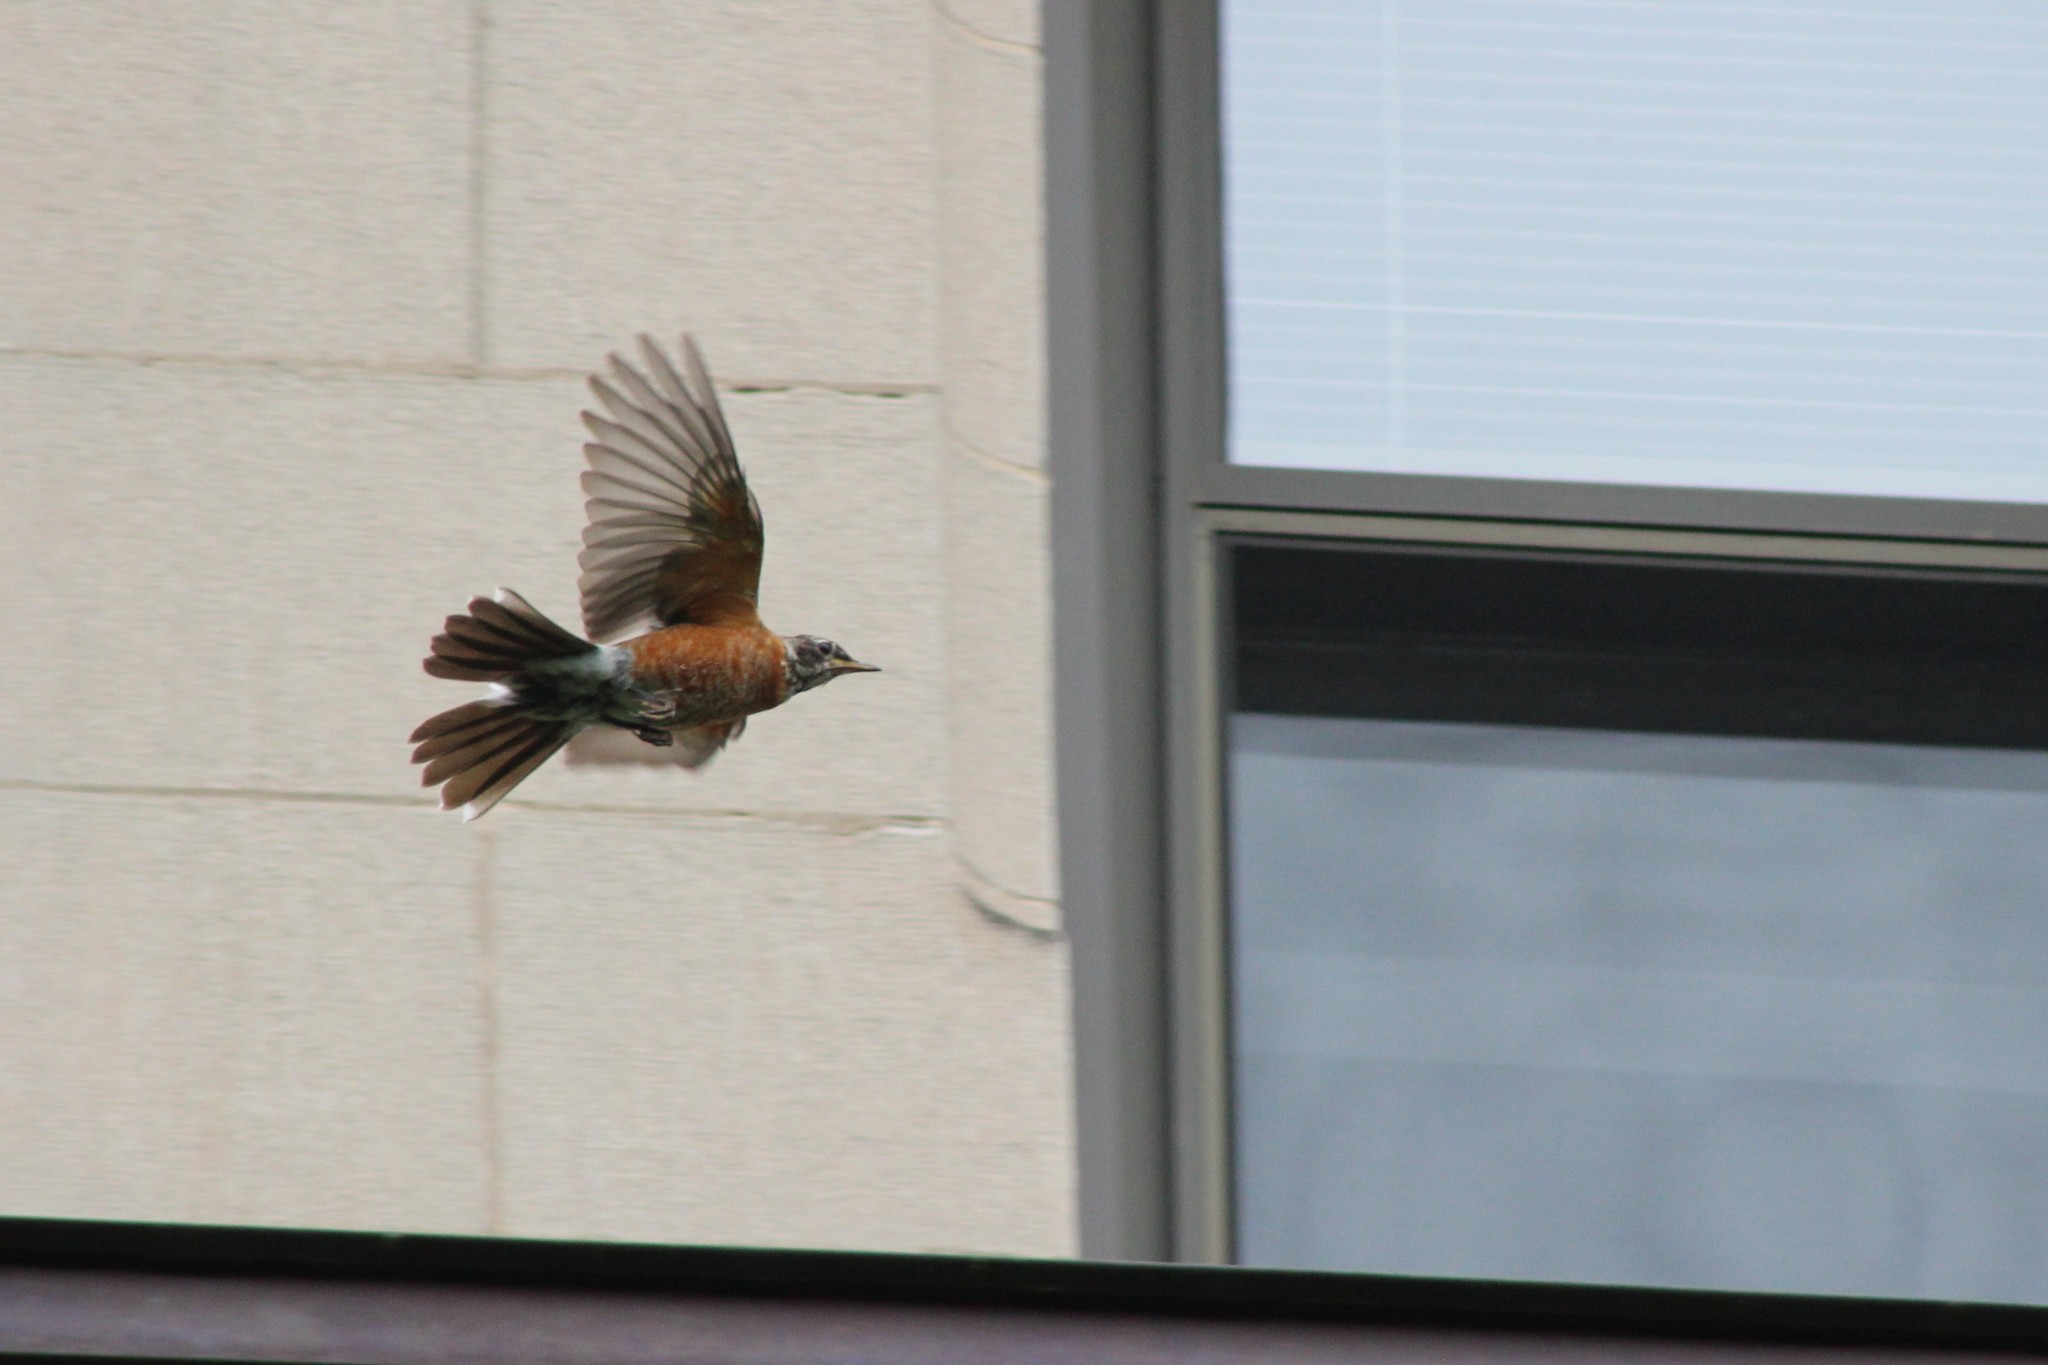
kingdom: Animalia
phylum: Chordata
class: Aves
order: Passeriformes
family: Turdidae
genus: Turdus
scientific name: Turdus migratorius
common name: American robin
